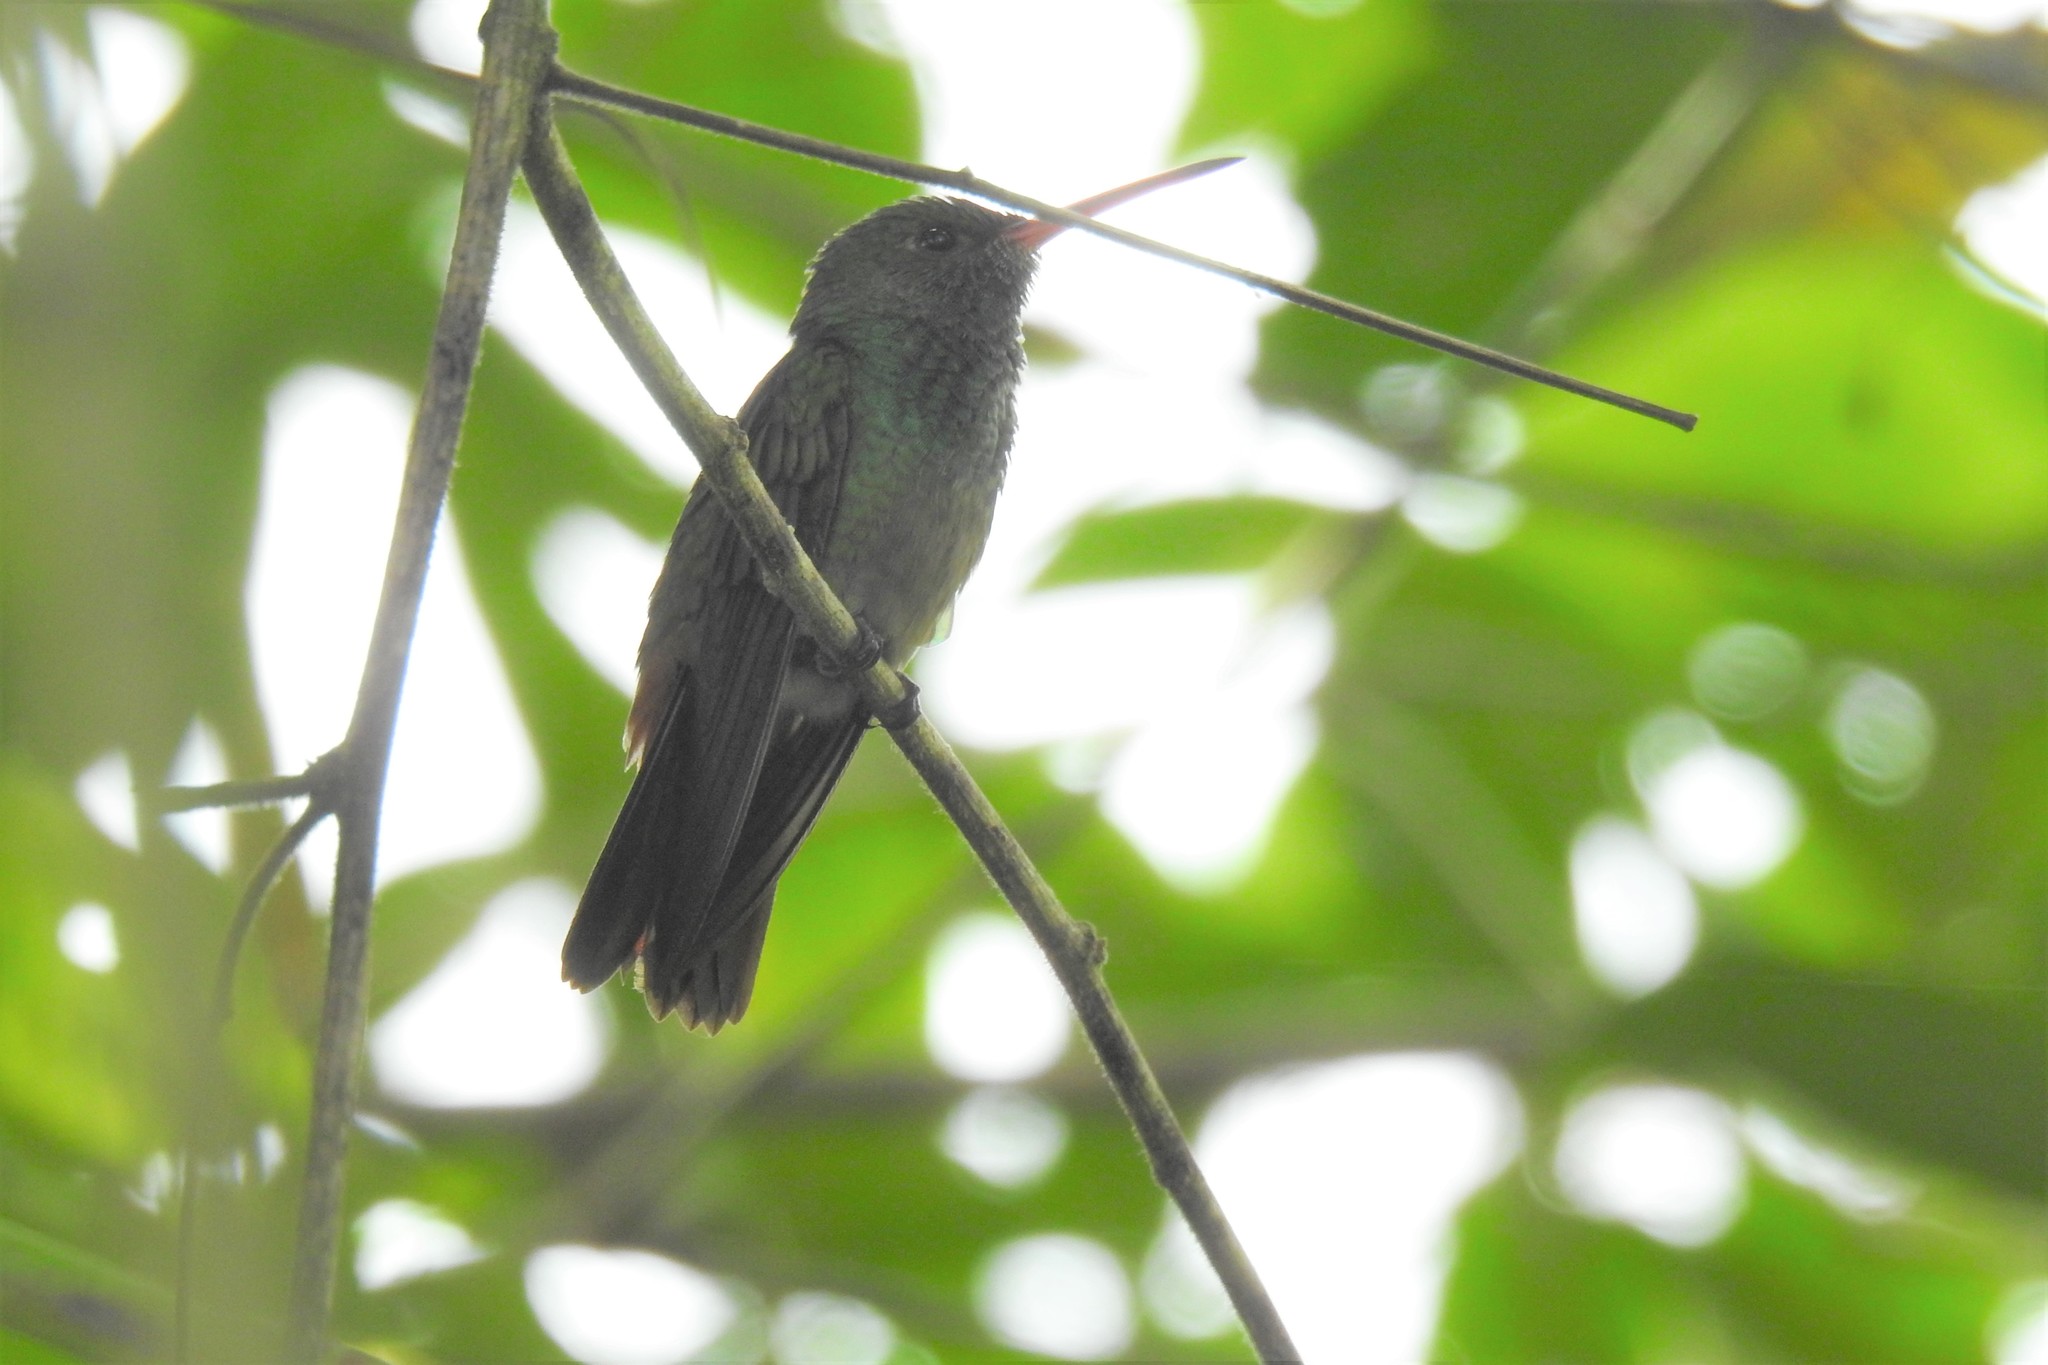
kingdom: Animalia
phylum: Chordata
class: Aves
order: Apodiformes
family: Trochilidae
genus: Amazilia
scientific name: Amazilia tzacatl
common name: Rufous-tailed hummingbird
